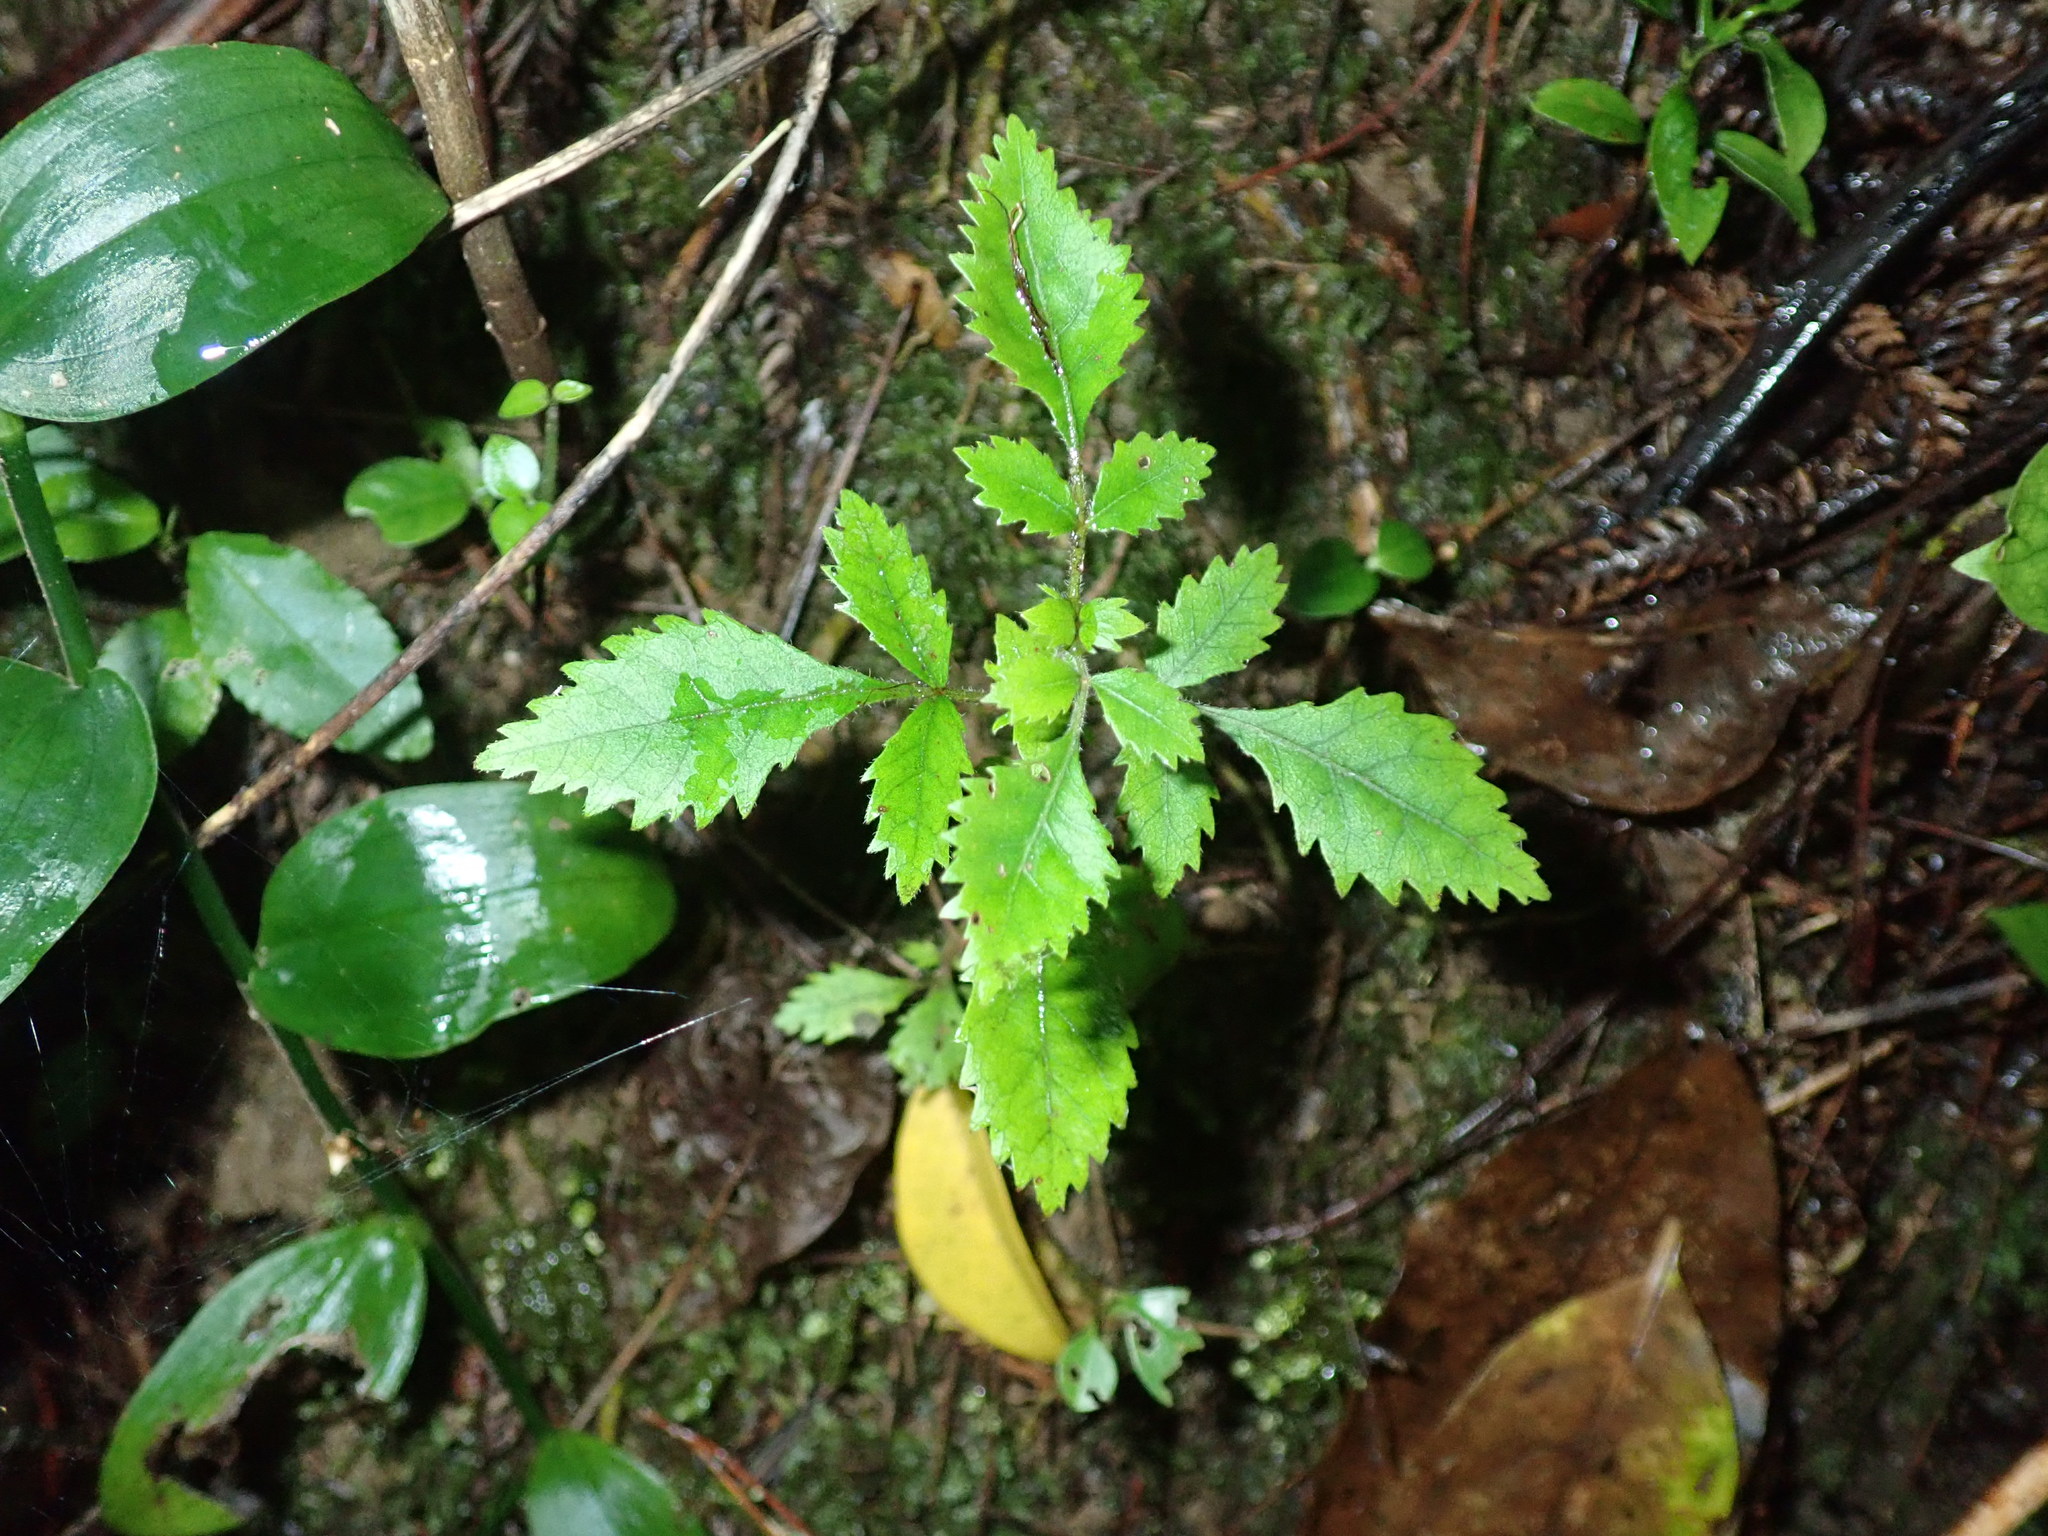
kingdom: Plantae
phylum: Tracheophyta
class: Magnoliopsida
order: Oxalidales
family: Cunoniaceae
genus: Pterophylla
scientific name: Pterophylla sylvicola
